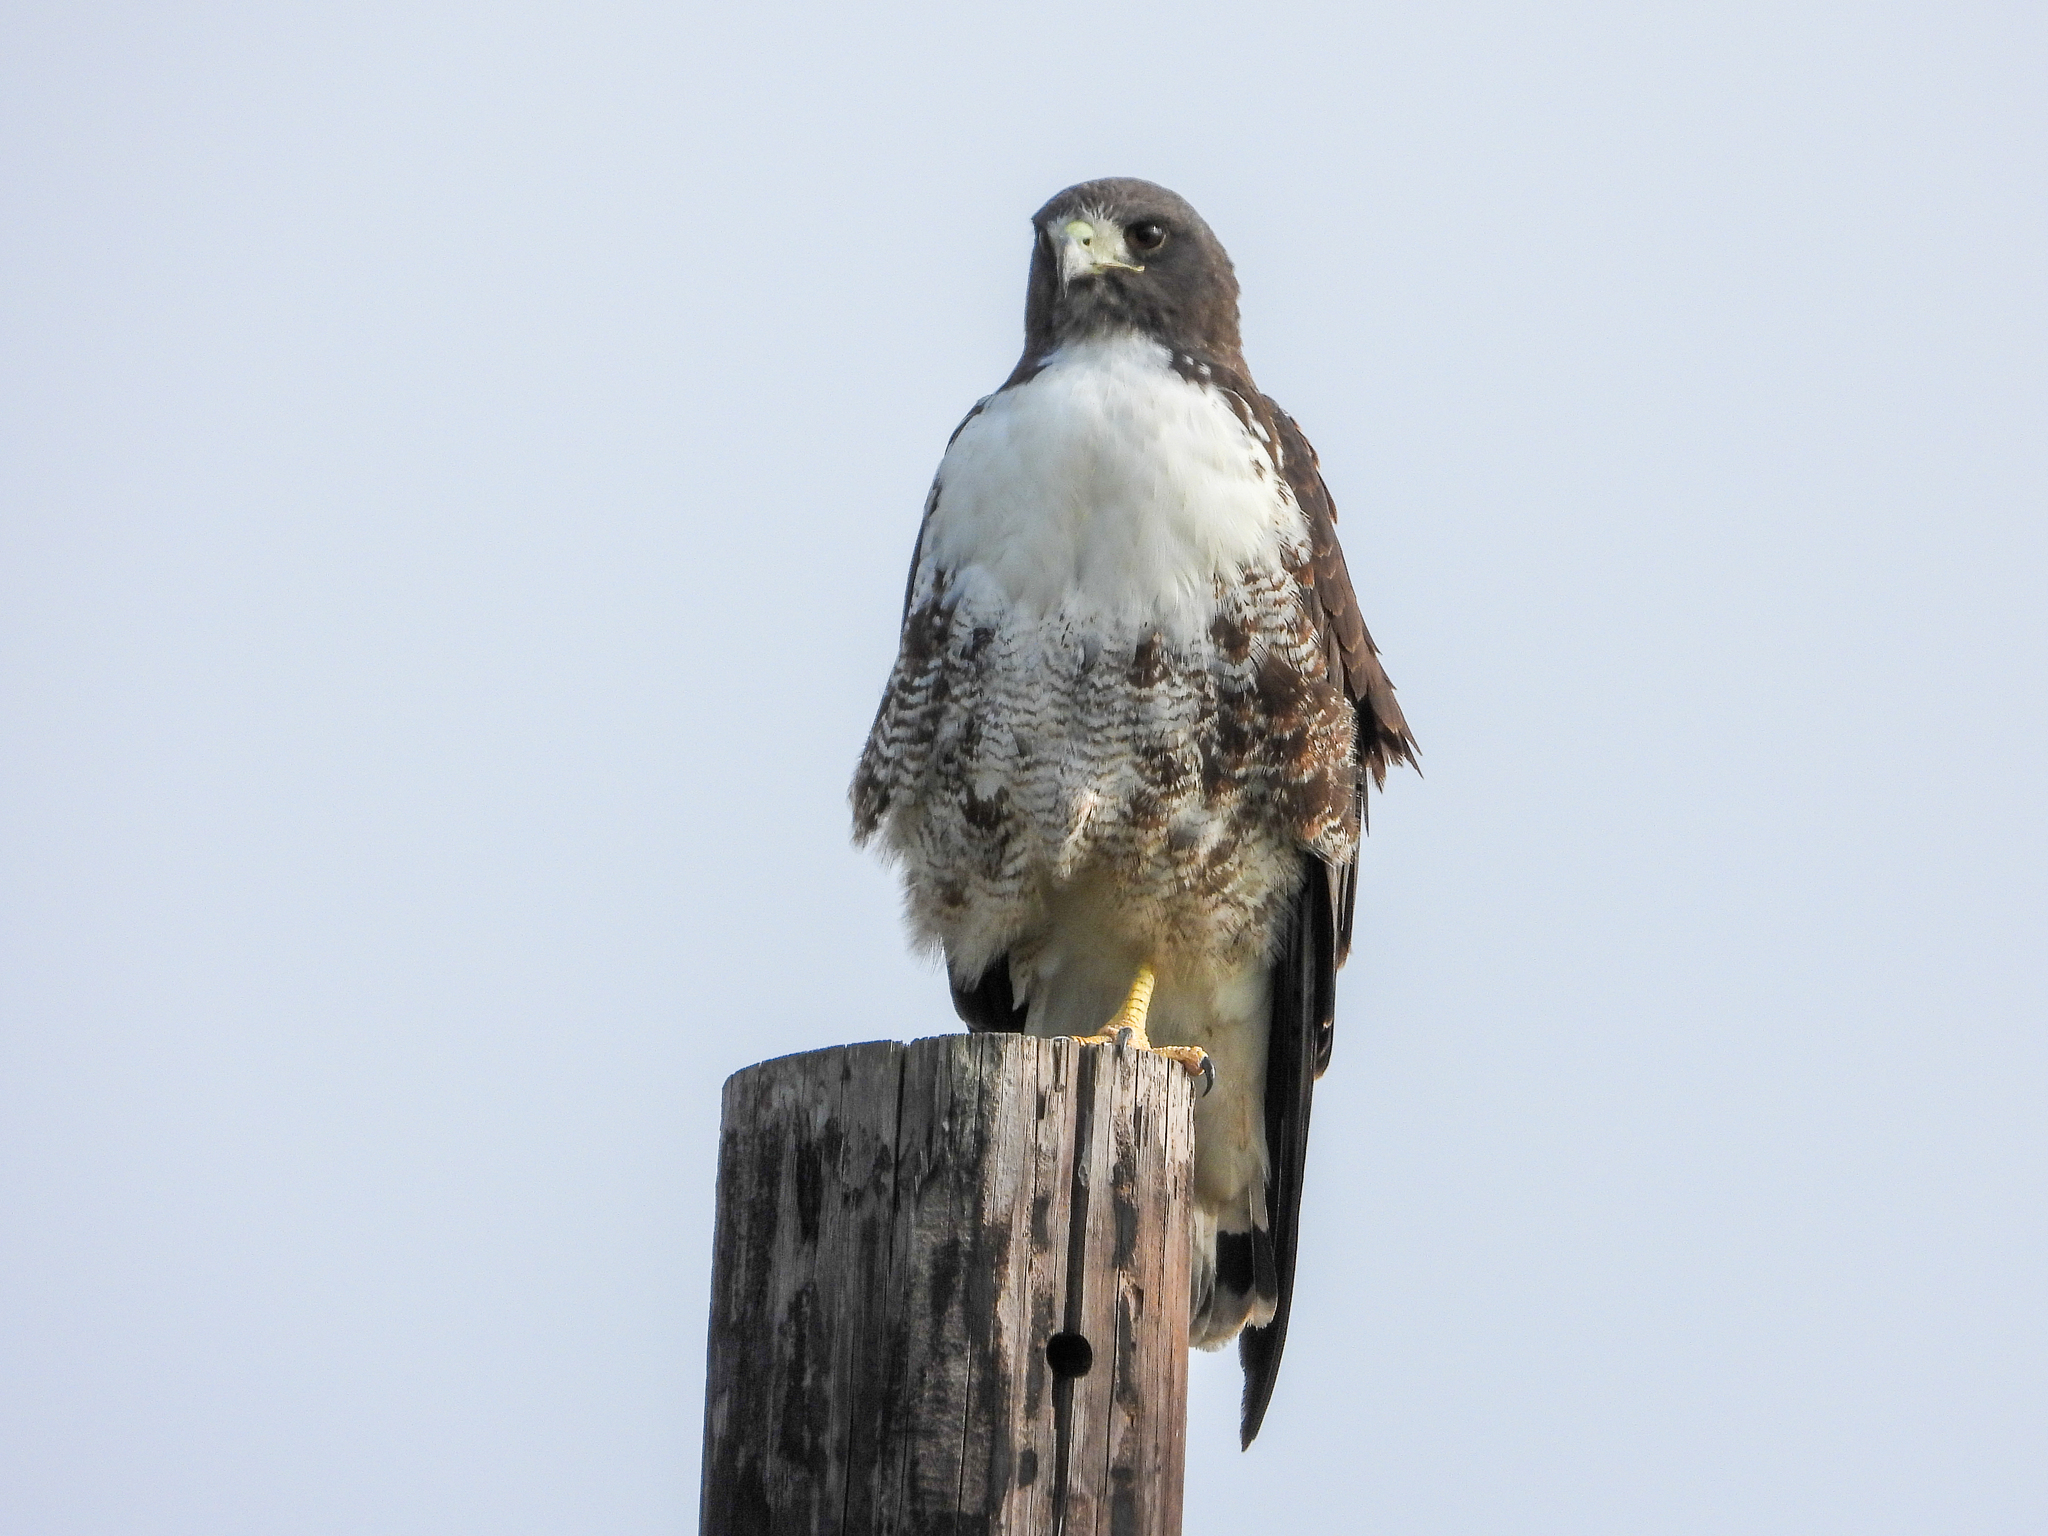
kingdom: Animalia
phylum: Chordata
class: Aves
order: Accipitriformes
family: Accipitridae
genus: Buteo
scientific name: Buteo albicaudatus
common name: White-tailed hawk
